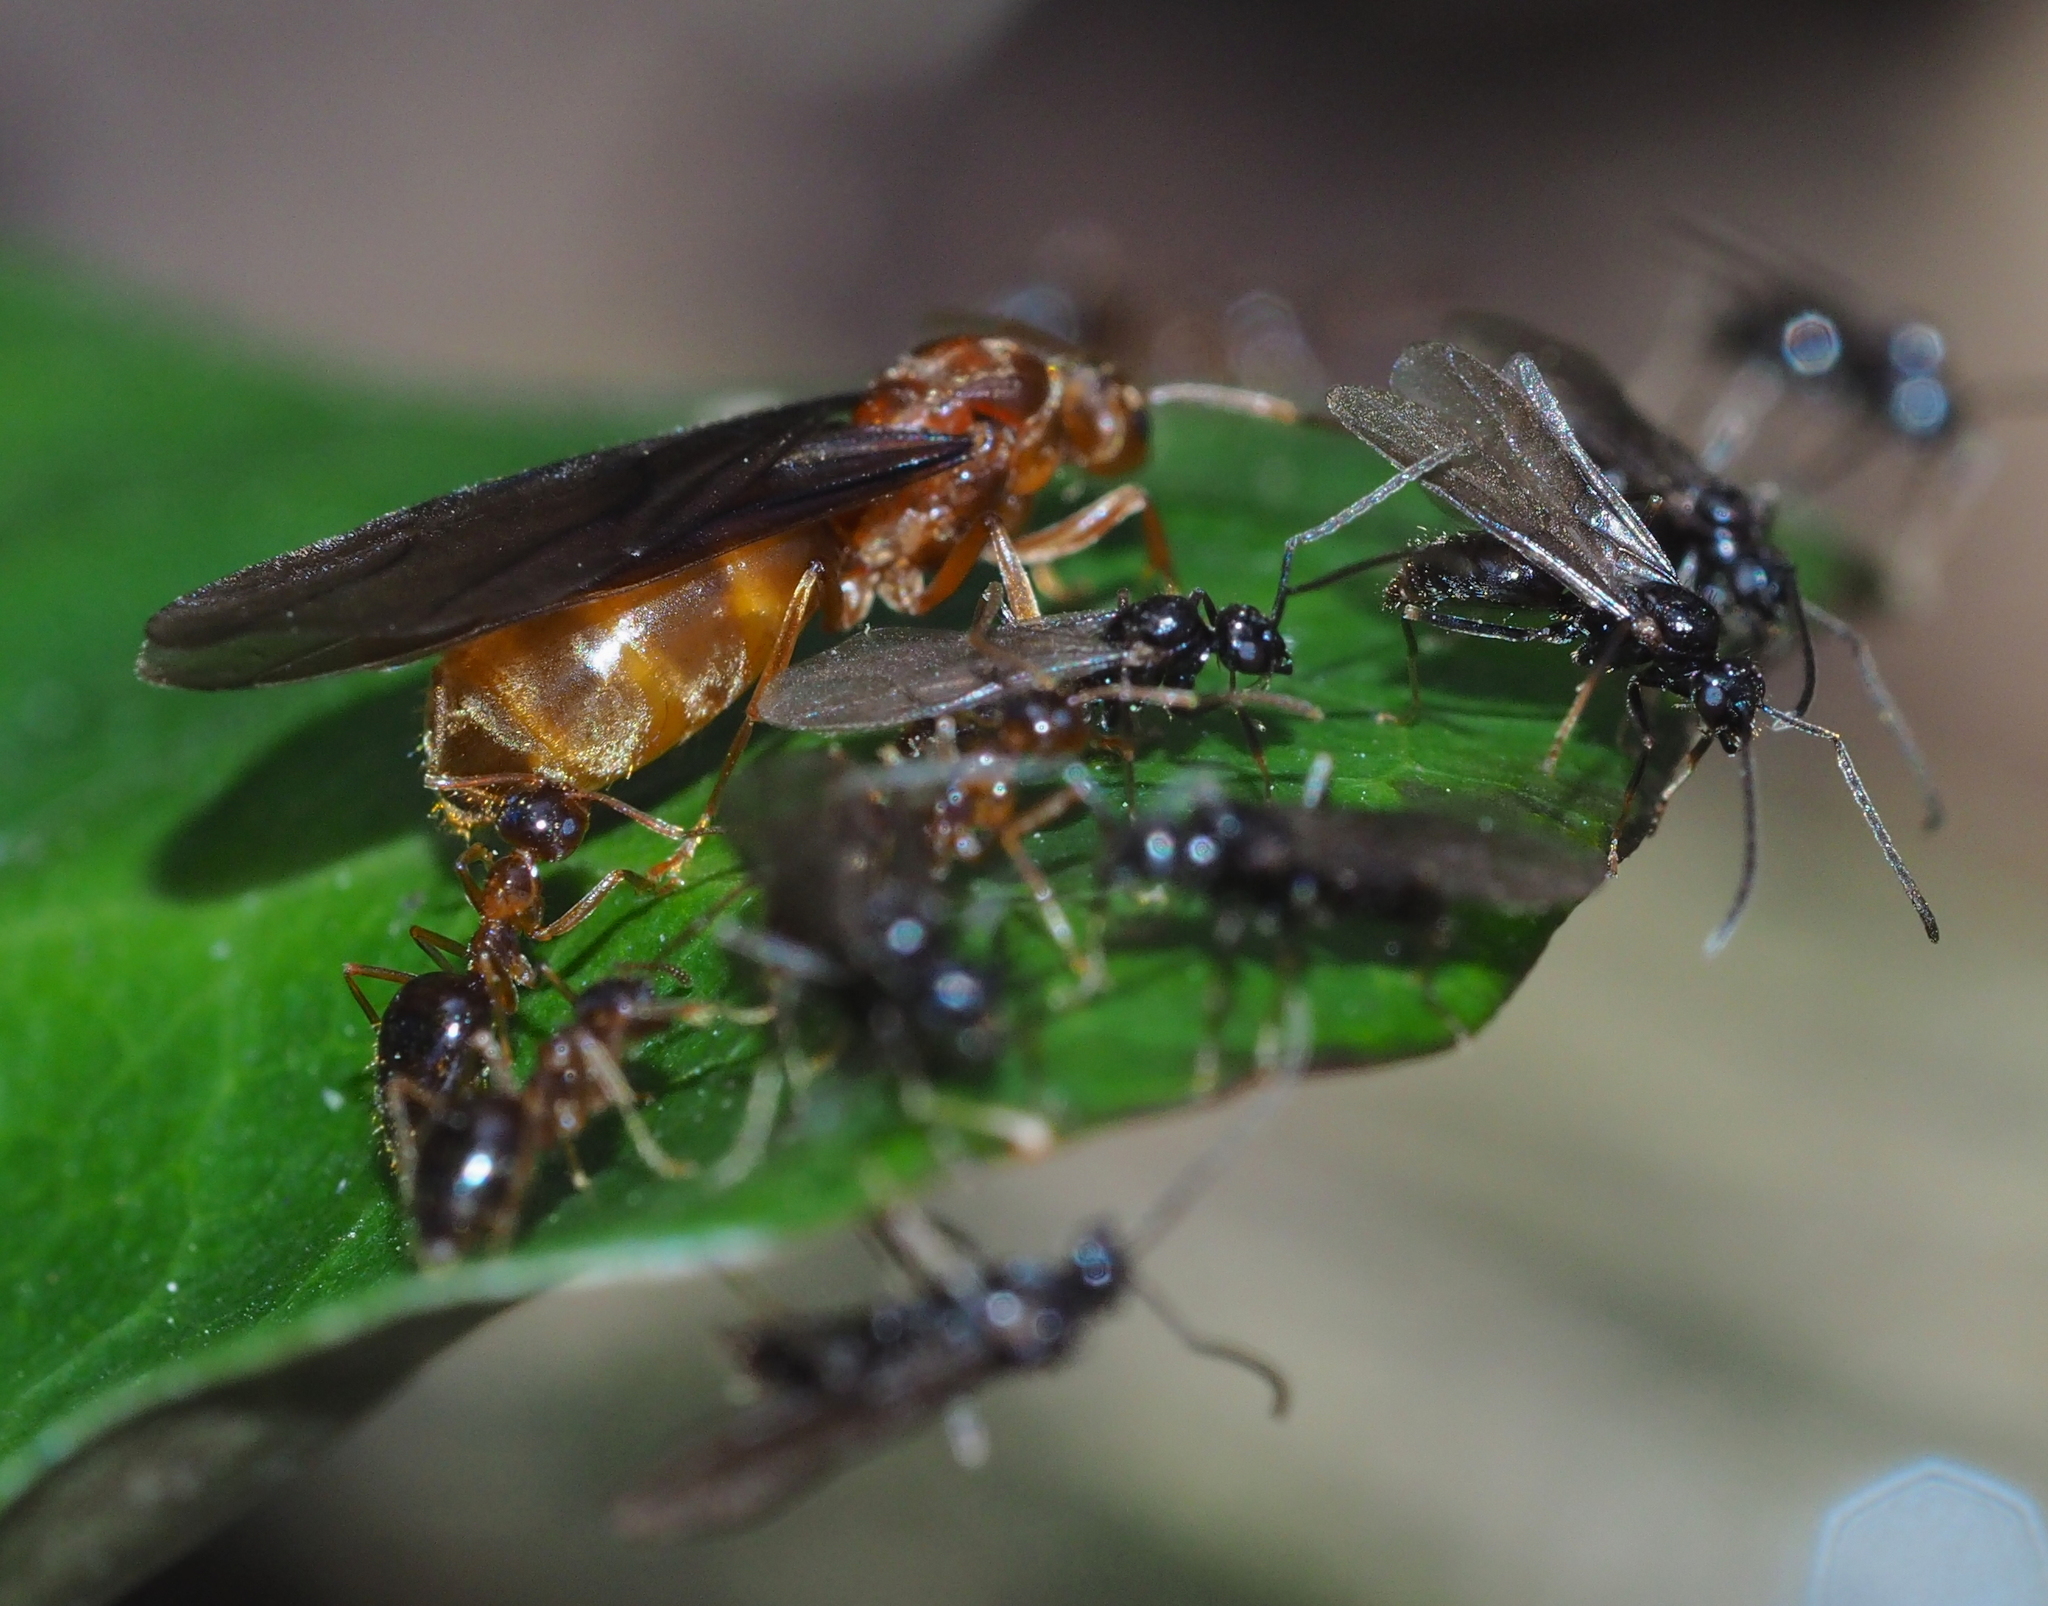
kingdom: Animalia
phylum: Arthropoda
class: Insecta
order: Hymenoptera
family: Formicidae
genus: Prenolepis
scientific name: Prenolepis nitens
